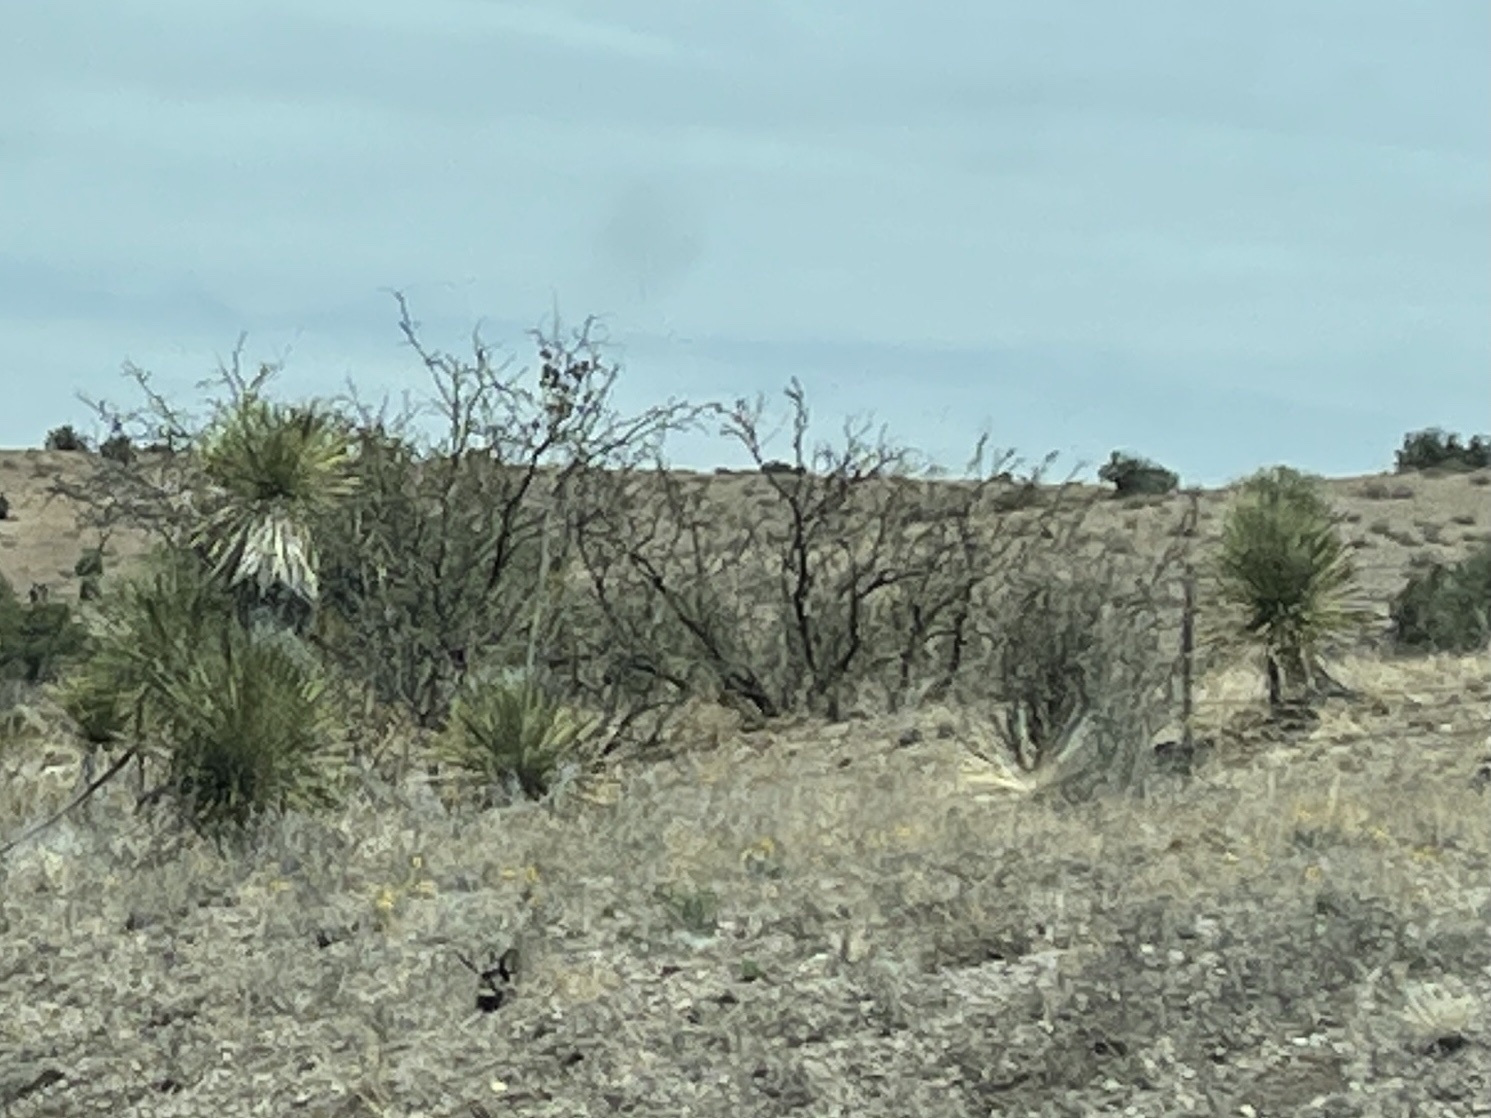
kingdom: Plantae
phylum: Tracheophyta
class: Liliopsida
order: Asparagales
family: Asparagaceae
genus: Yucca
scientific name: Yucca elata
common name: Palmella
